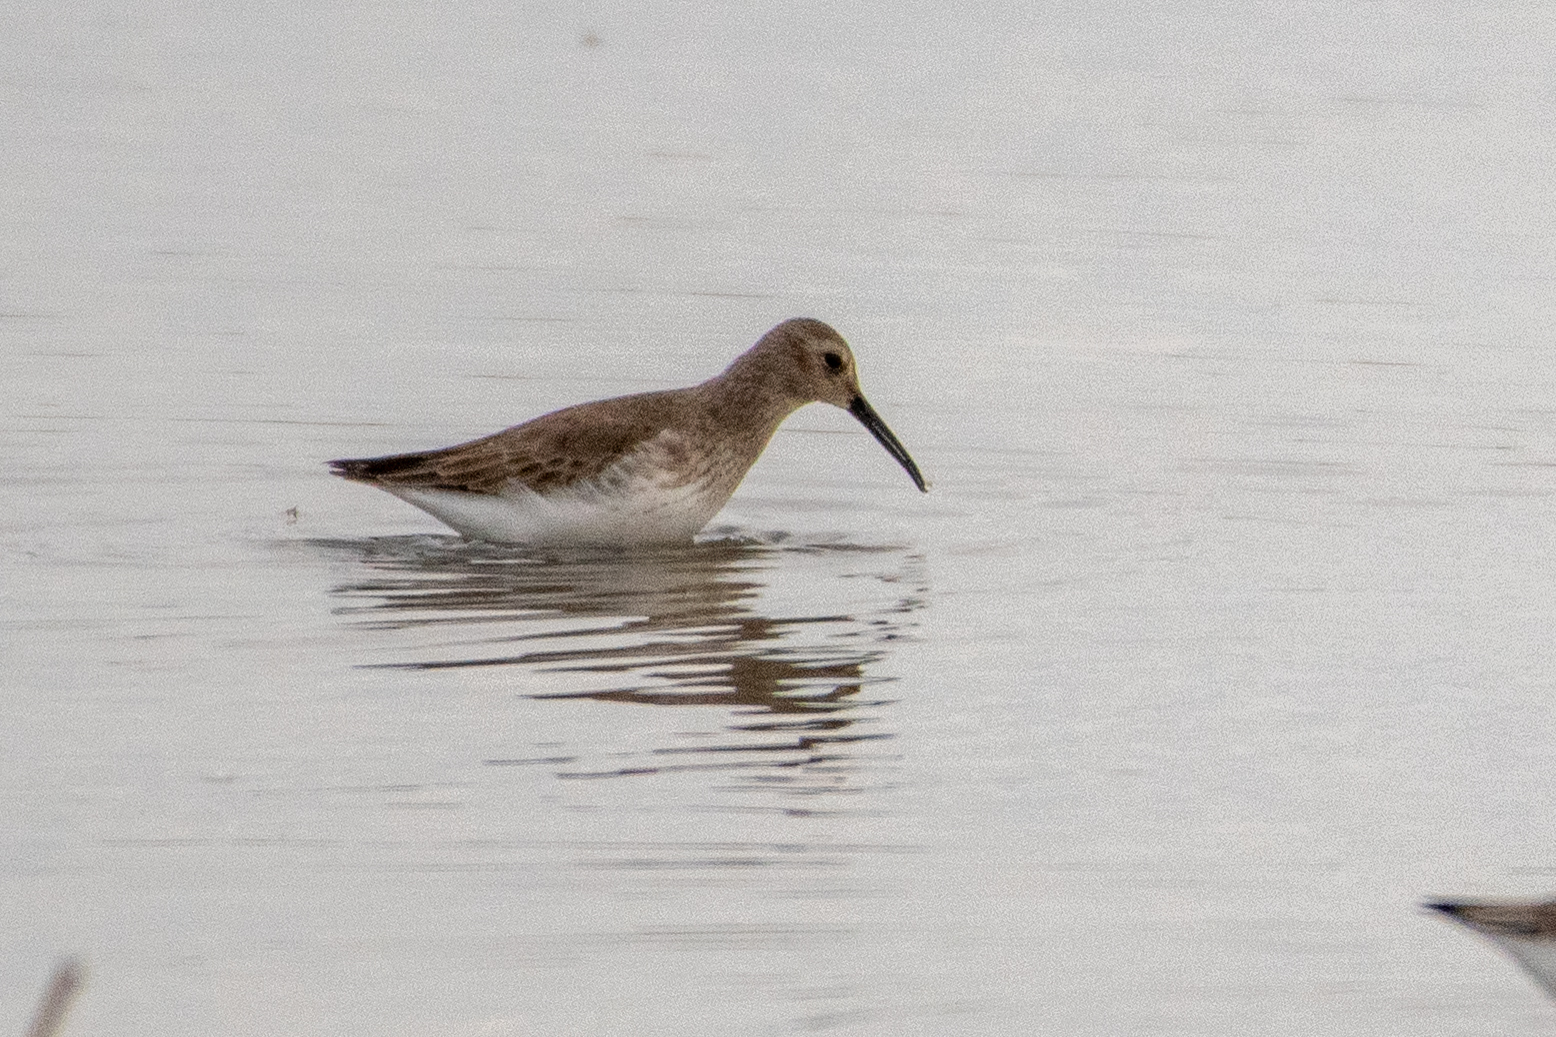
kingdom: Animalia
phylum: Chordata
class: Aves
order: Charadriiformes
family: Scolopacidae
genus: Calidris
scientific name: Calidris alpina
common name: Dunlin
